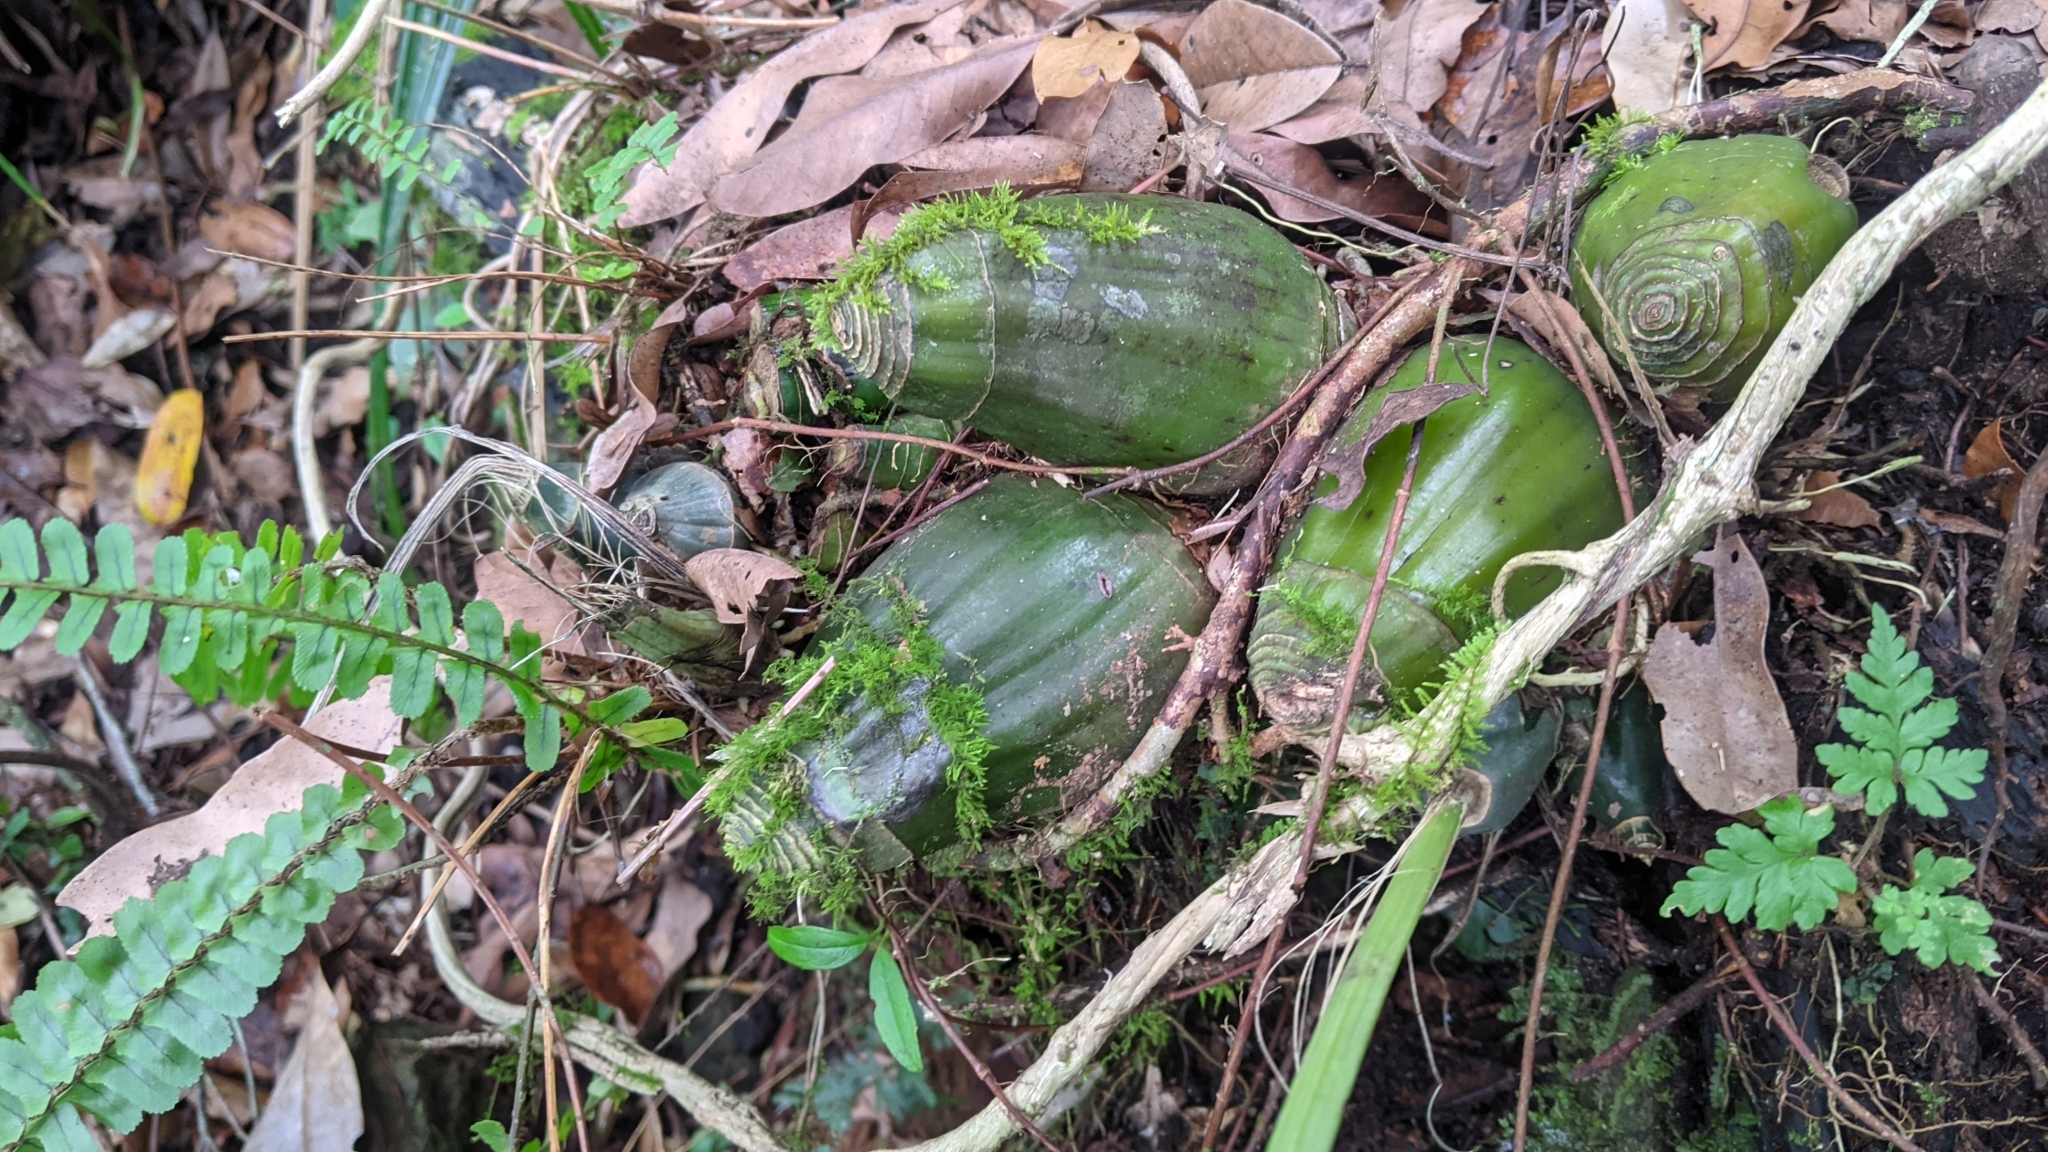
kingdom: Plantae
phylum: Tracheophyta
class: Liliopsida
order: Asparagales
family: Orchidaceae
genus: Calanthe
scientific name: Calanthe woodfordii
